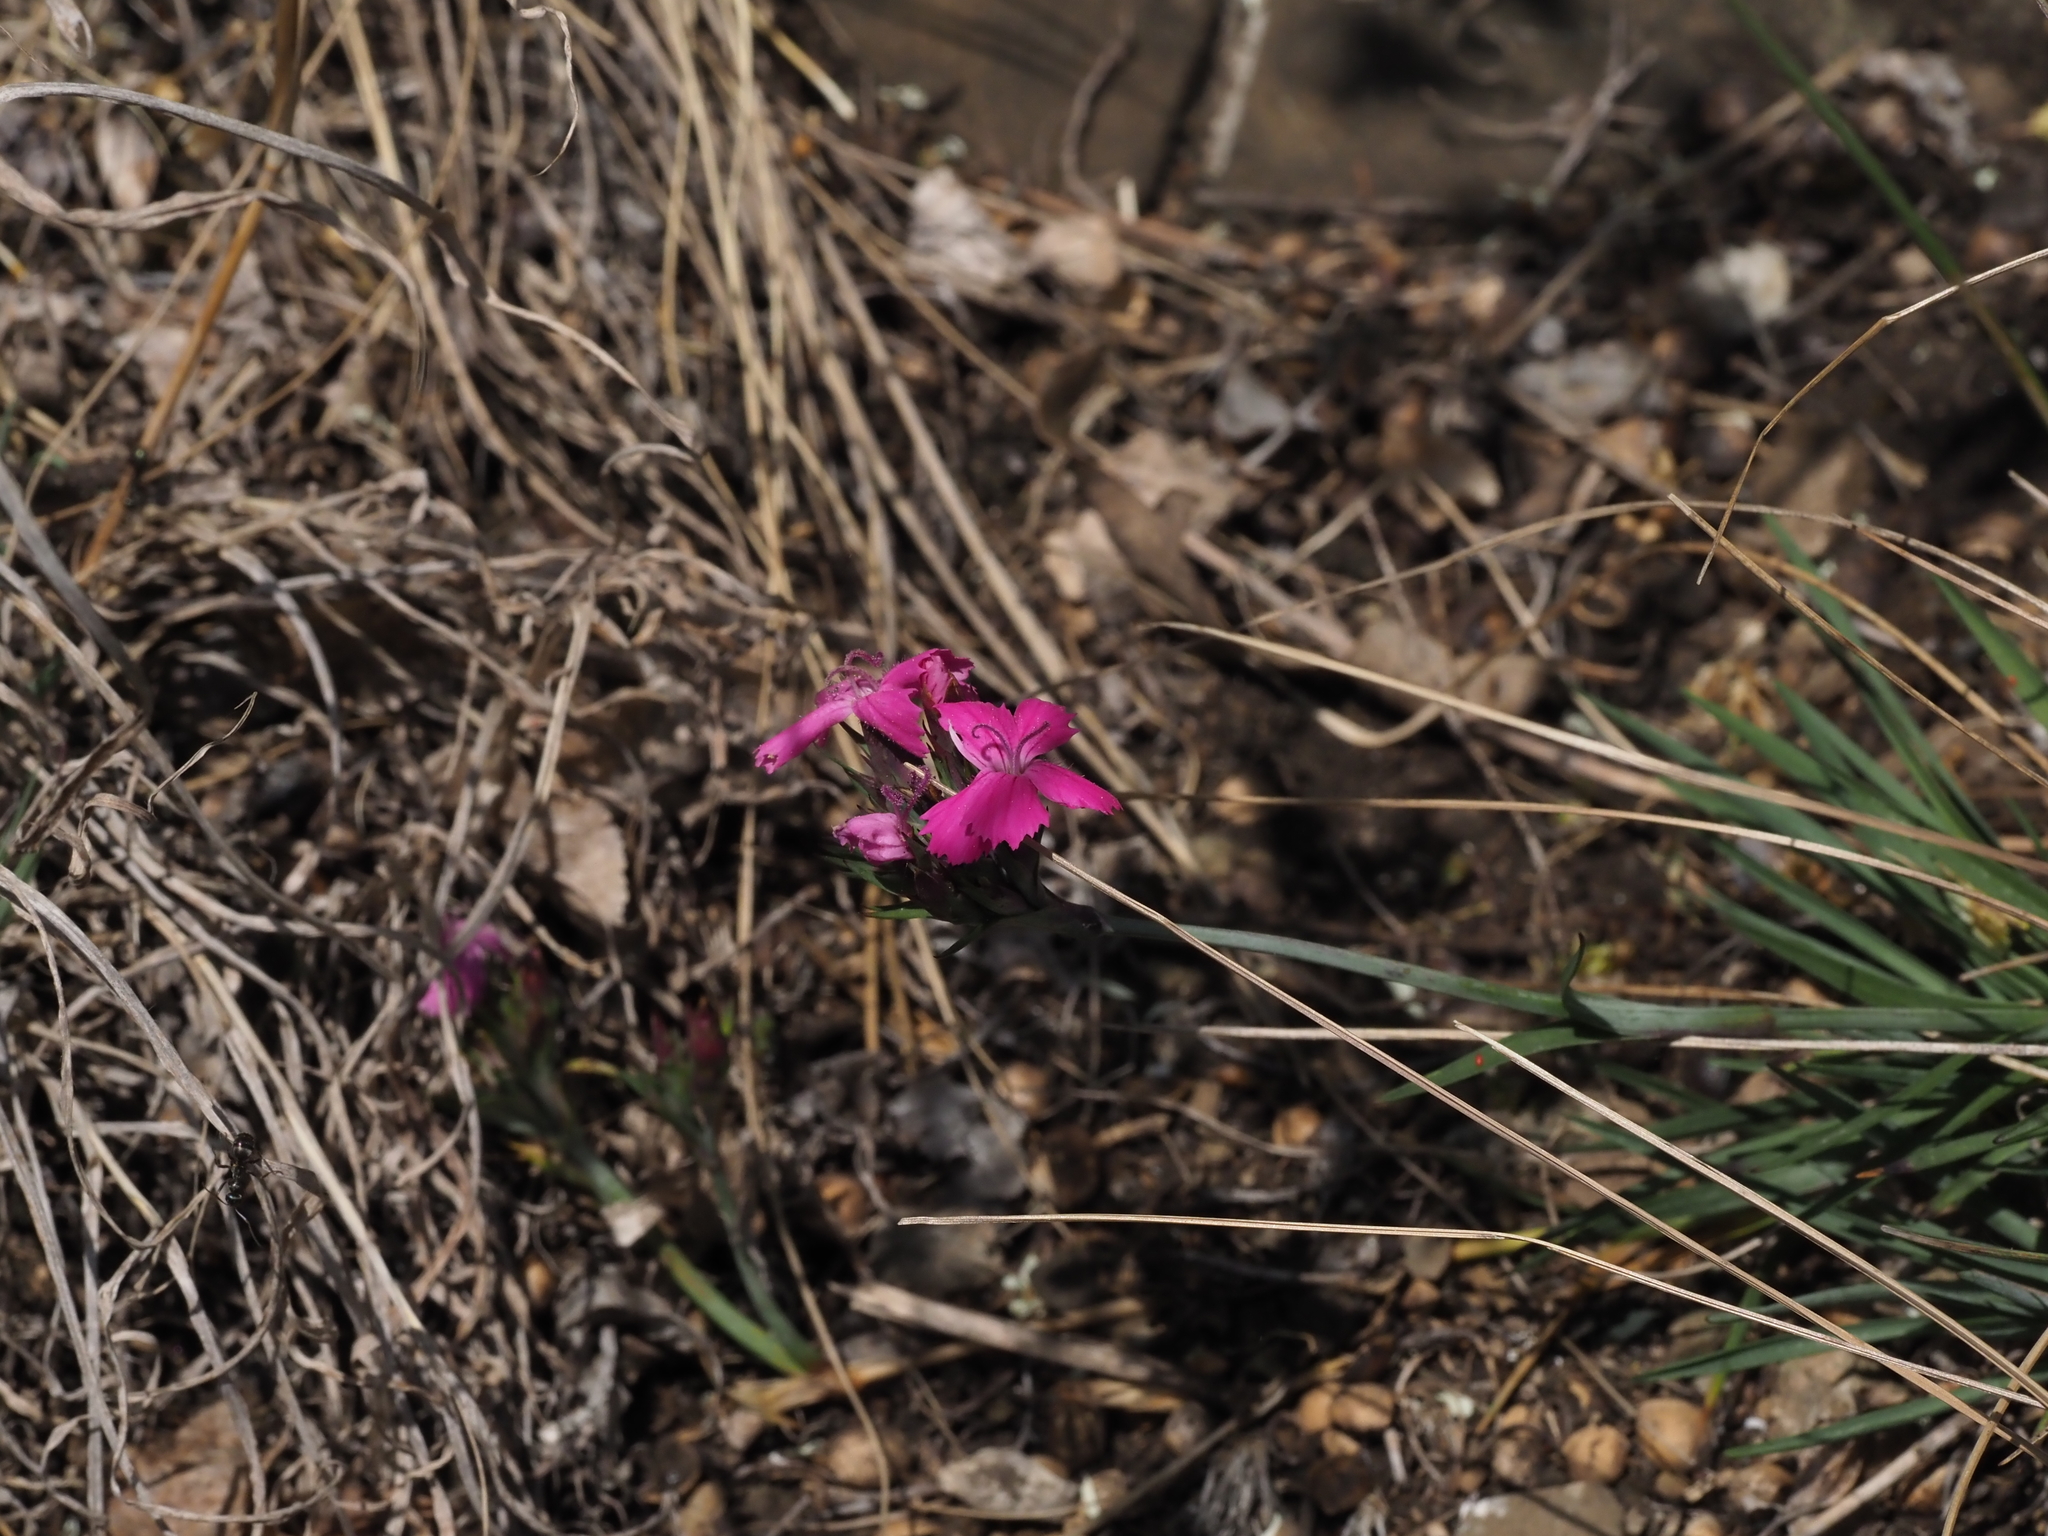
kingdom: Plantae
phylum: Tracheophyta
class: Magnoliopsida
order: Caryophyllales
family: Caryophyllaceae
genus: Dianthus
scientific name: Dianthus carthusianorum
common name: Carthusian pink
